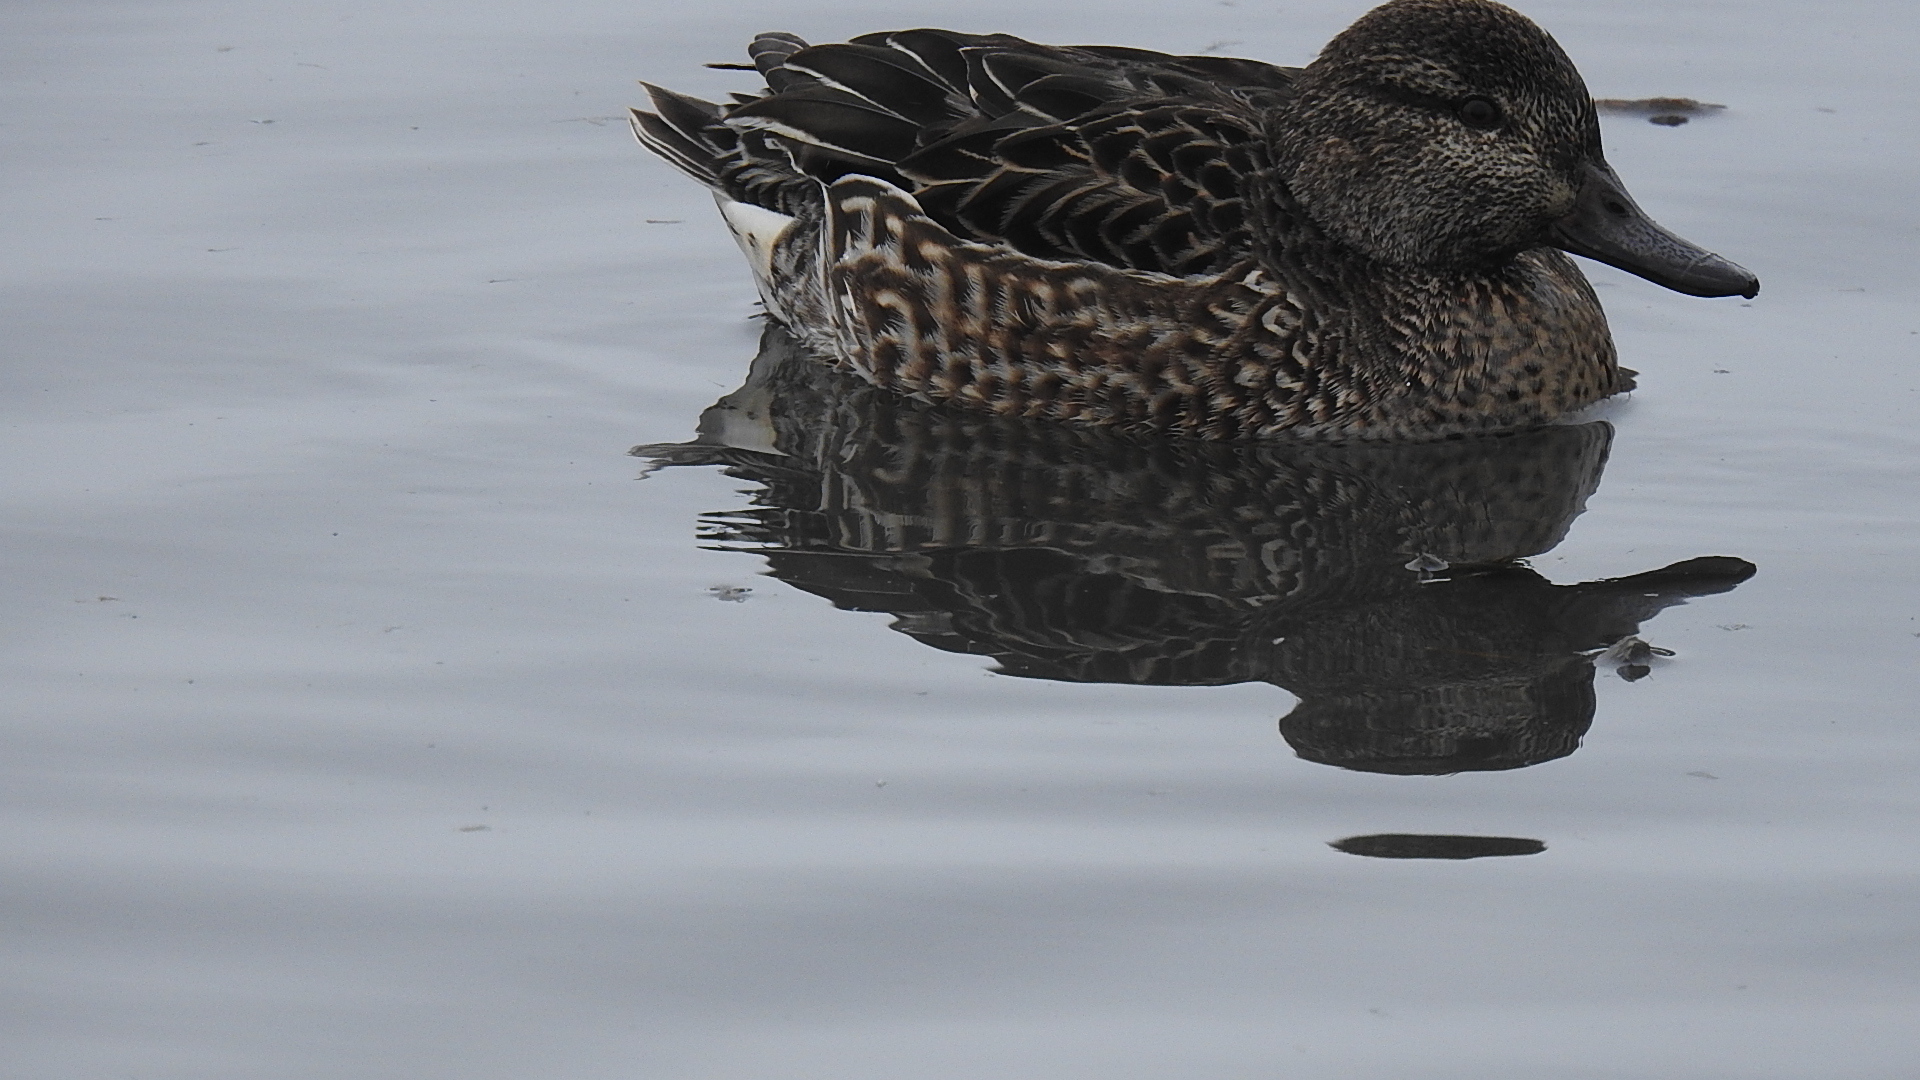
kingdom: Animalia
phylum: Chordata
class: Aves
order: Anseriformes
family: Anatidae
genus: Anas
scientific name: Anas crecca
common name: Eurasian teal
